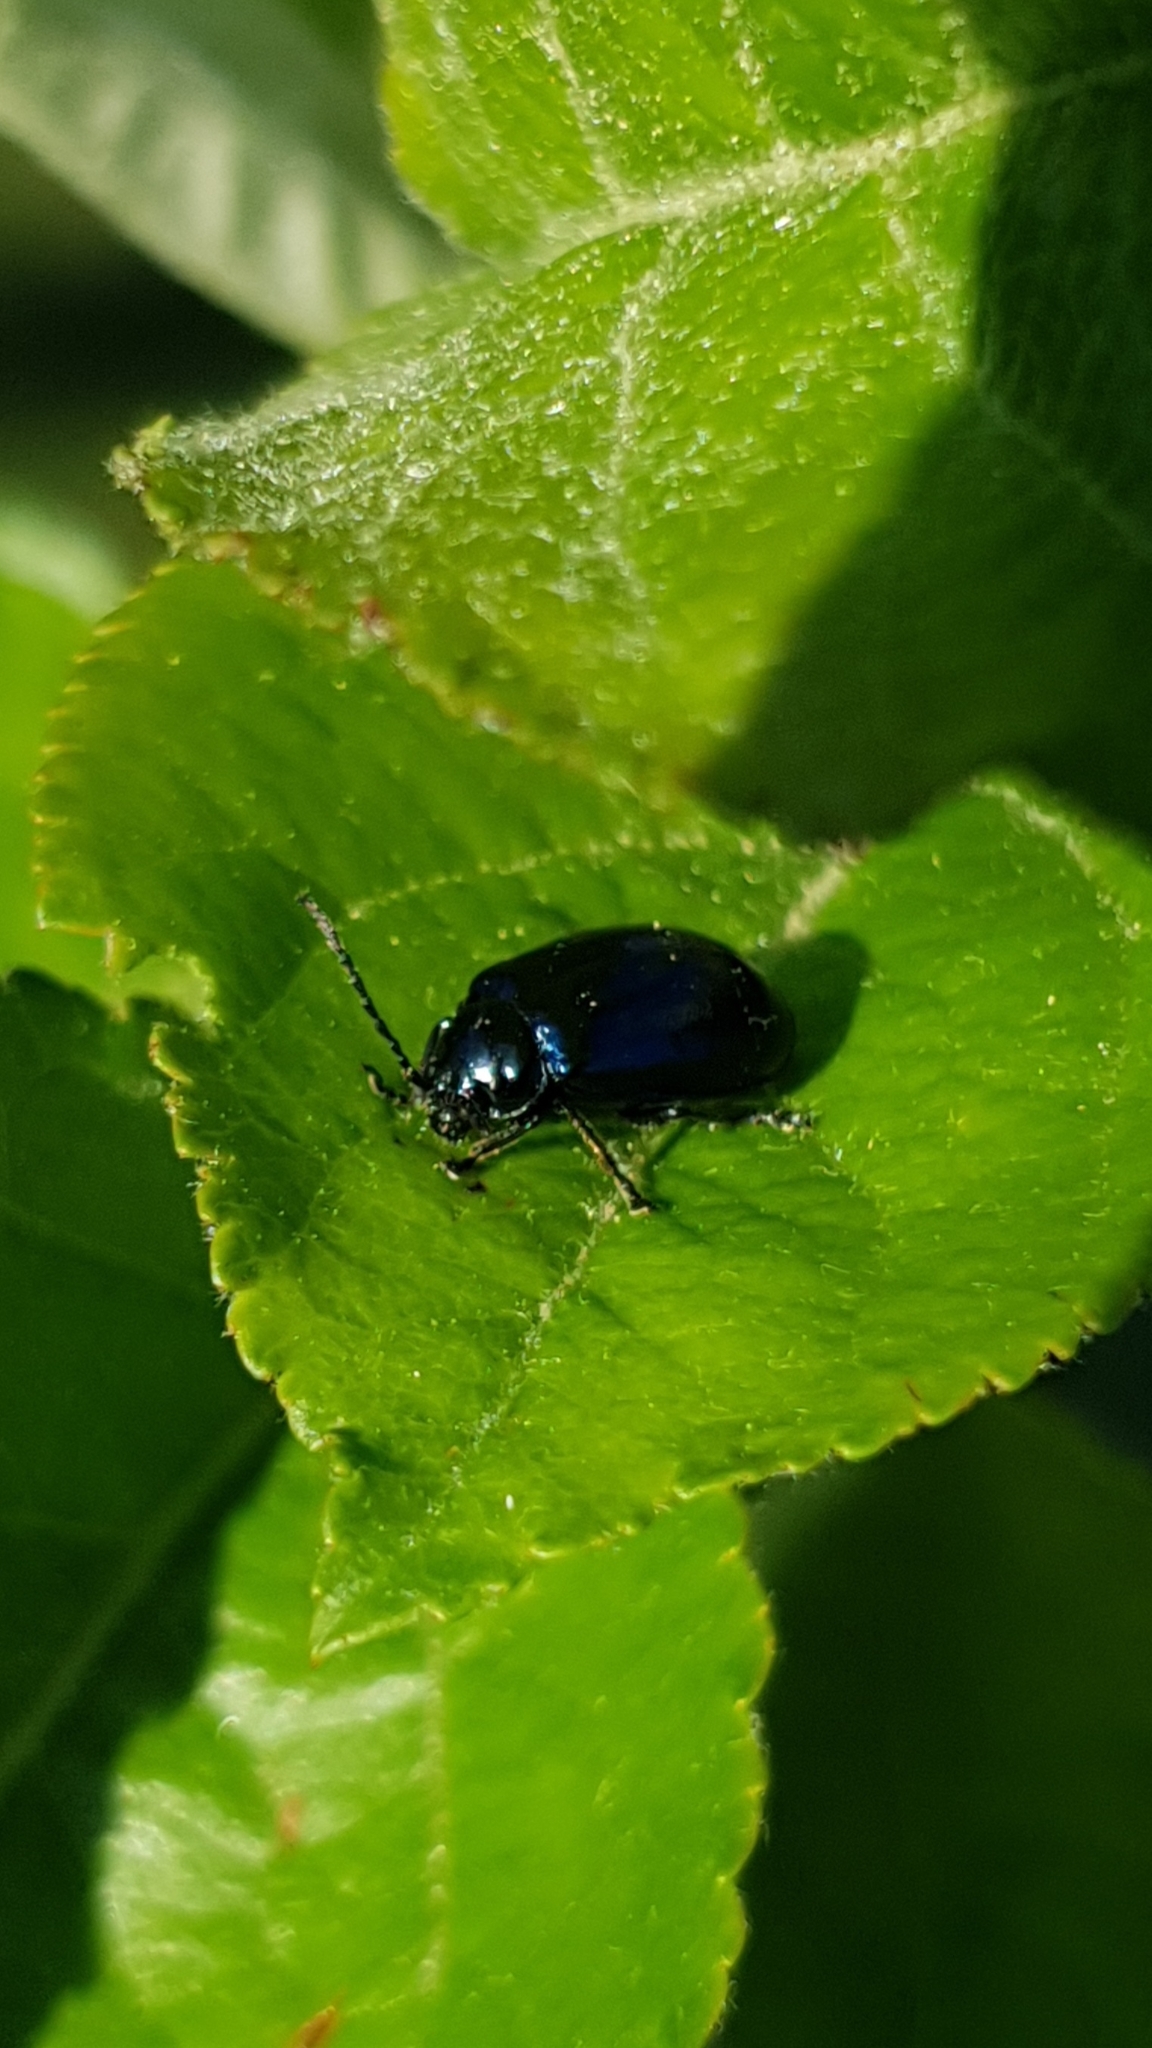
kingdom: Animalia
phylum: Arthropoda
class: Insecta
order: Coleoptera
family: Chrysomelidae
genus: Agelastica
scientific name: Agelastica alni
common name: Alder leaf beetle
